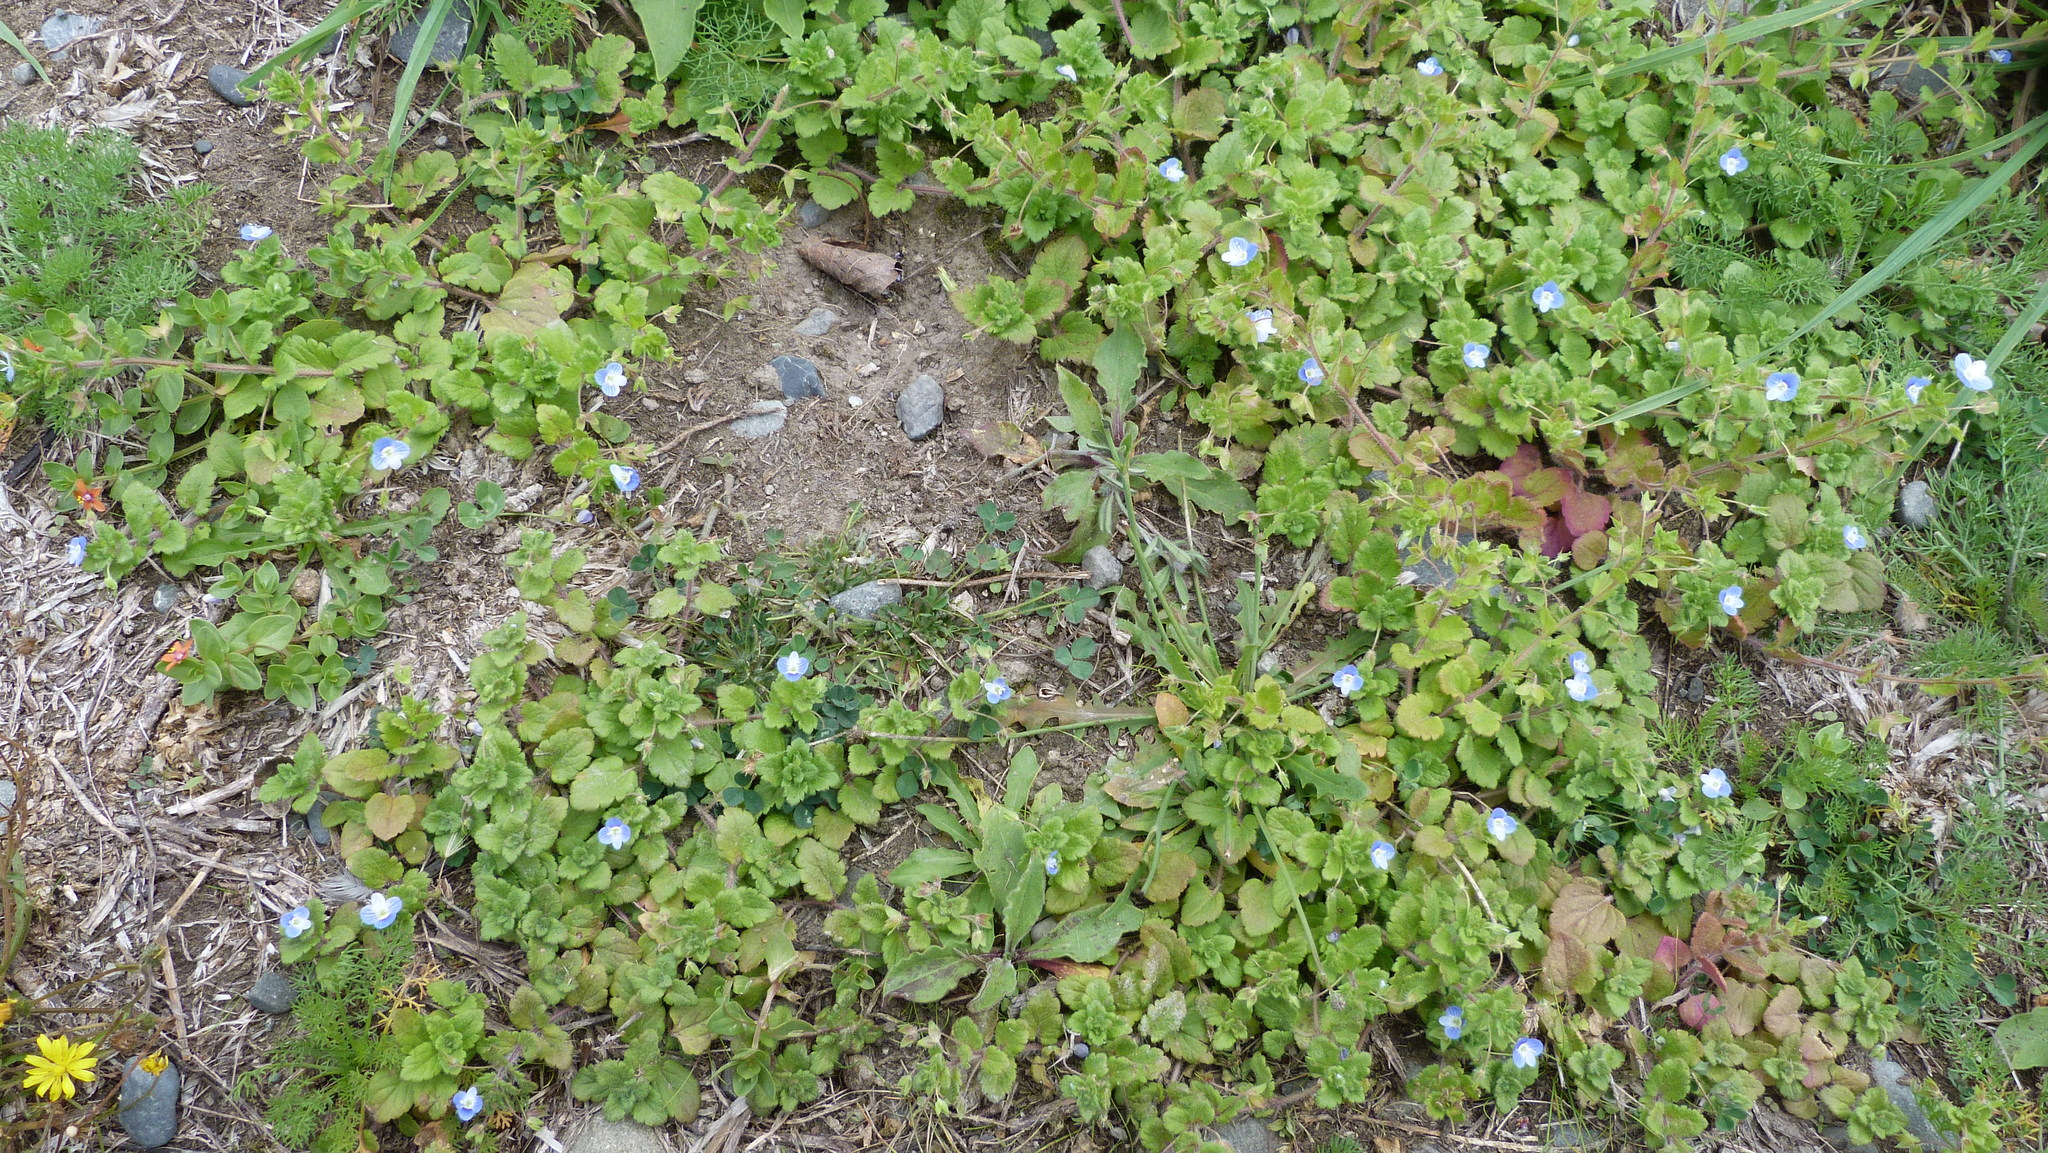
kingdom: Plantae
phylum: Tracheophyta
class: Magnoliopsida
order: Lamiales
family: Plantaginaceae
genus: Veronica
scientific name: Veronica persica
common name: Common field-speedwell
